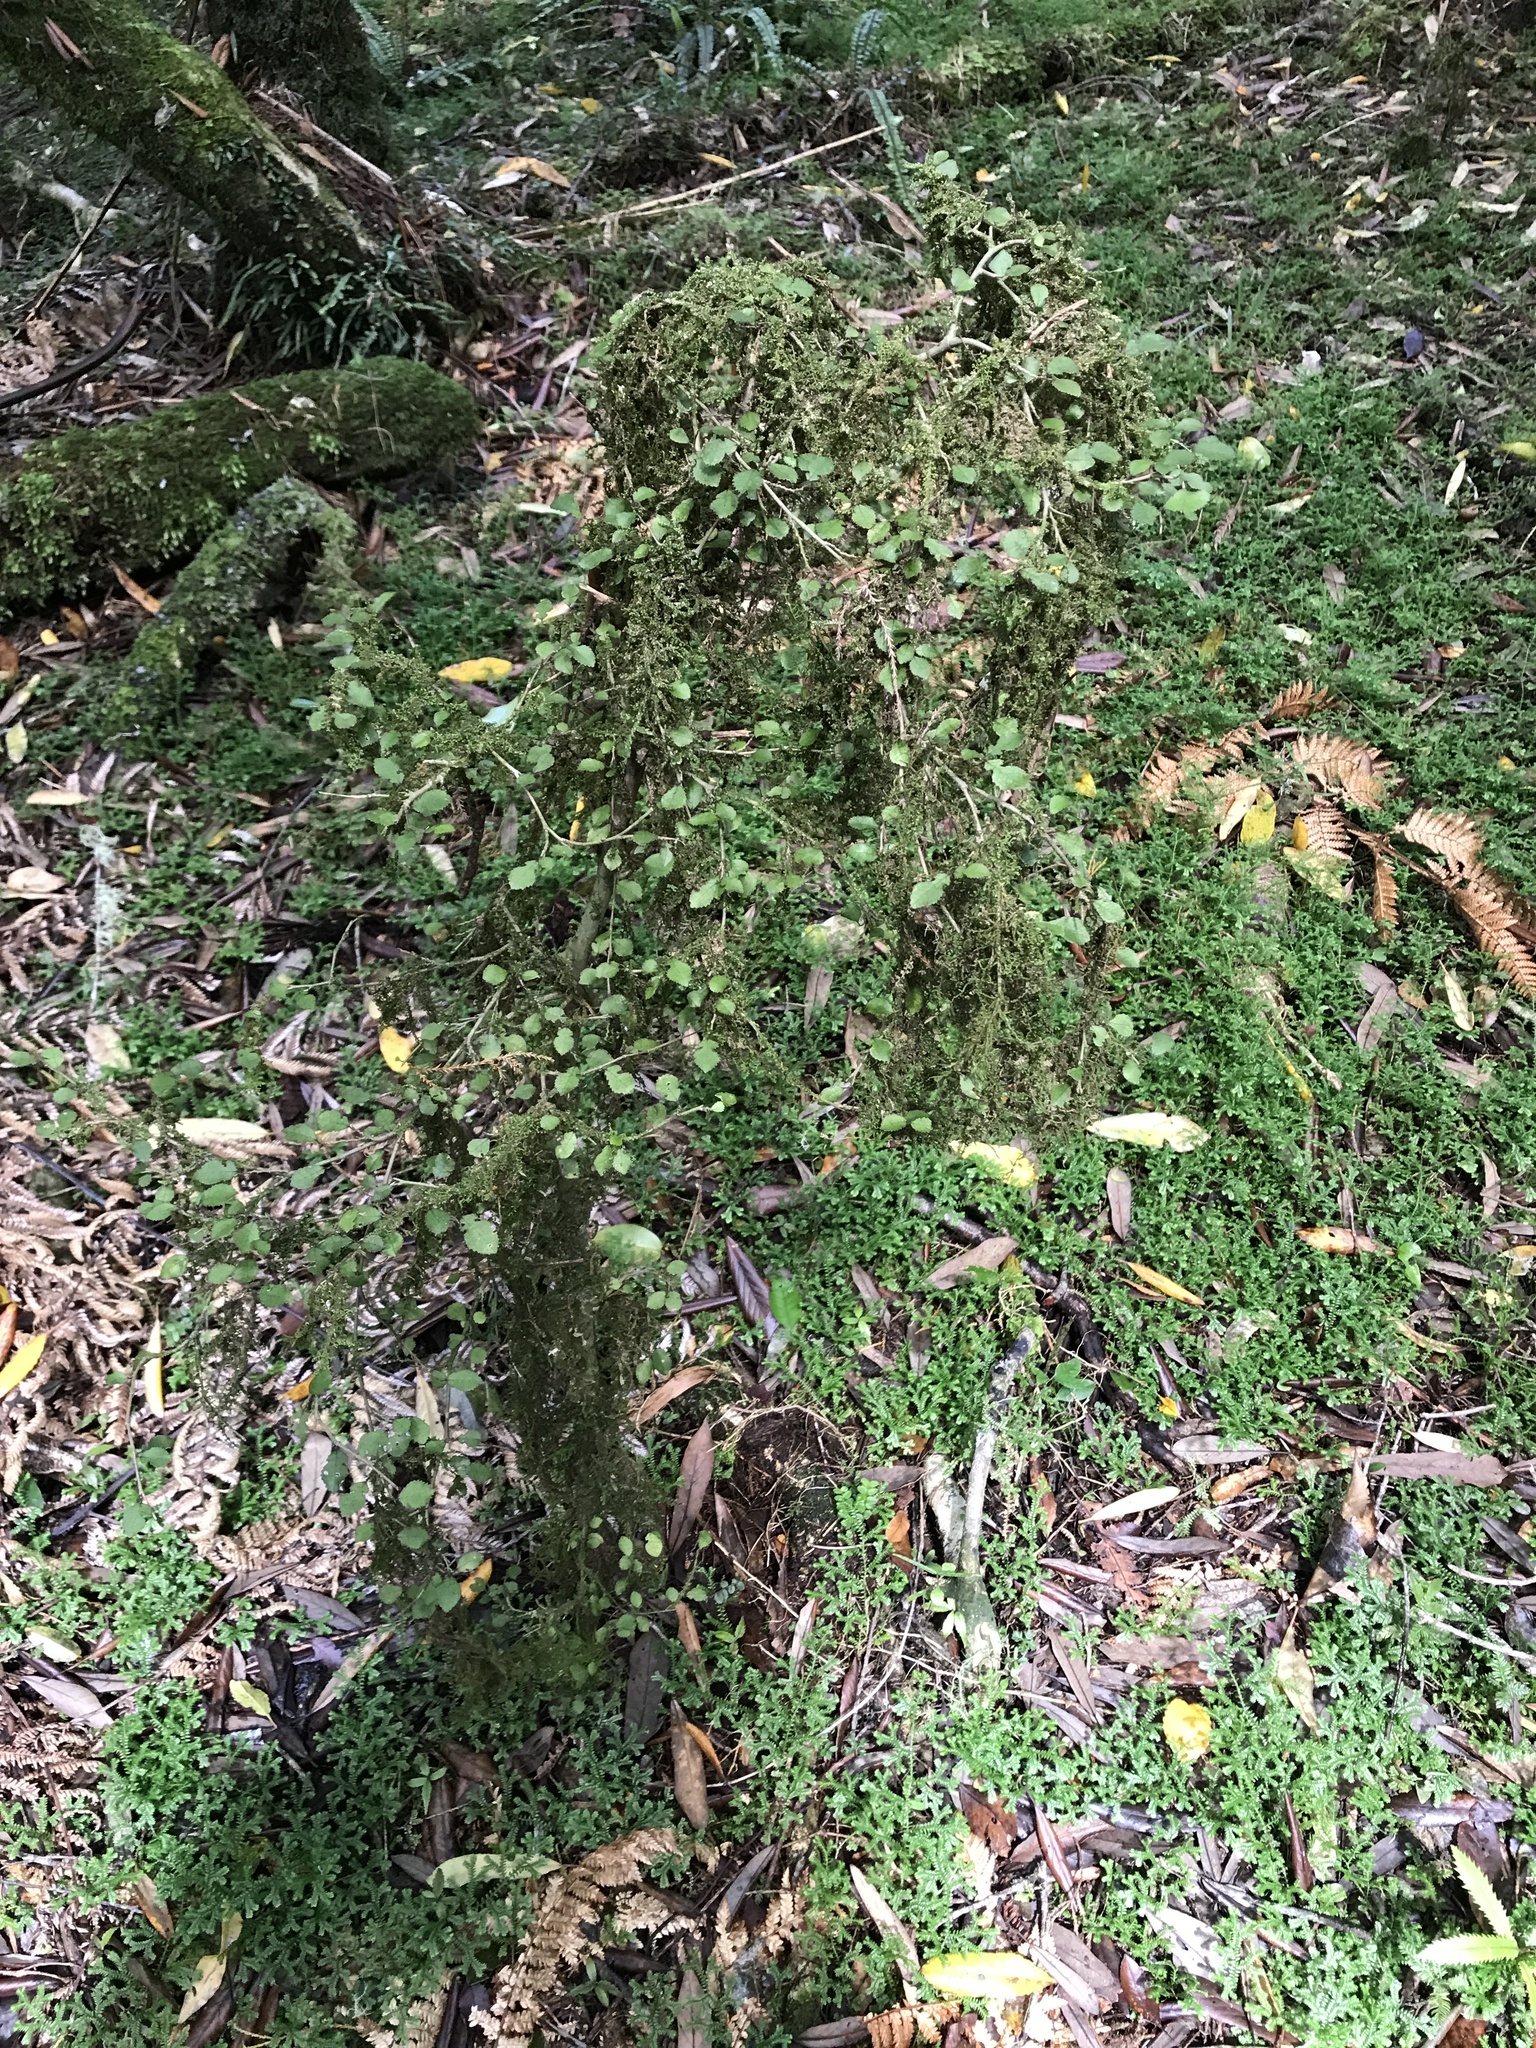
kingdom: Plantae
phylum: Tracheophyta
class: Magnoliopsida
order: Rosales
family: Moraceae
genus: Paratrophis
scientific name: Paratrophis microphylla
